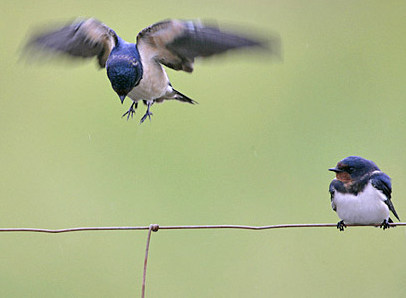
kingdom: Animalia
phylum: Chordata
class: Aves
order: Passeriformes
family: Hirundinidae
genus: Hirundo
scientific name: Hirundo rustica
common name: Barn swallow
